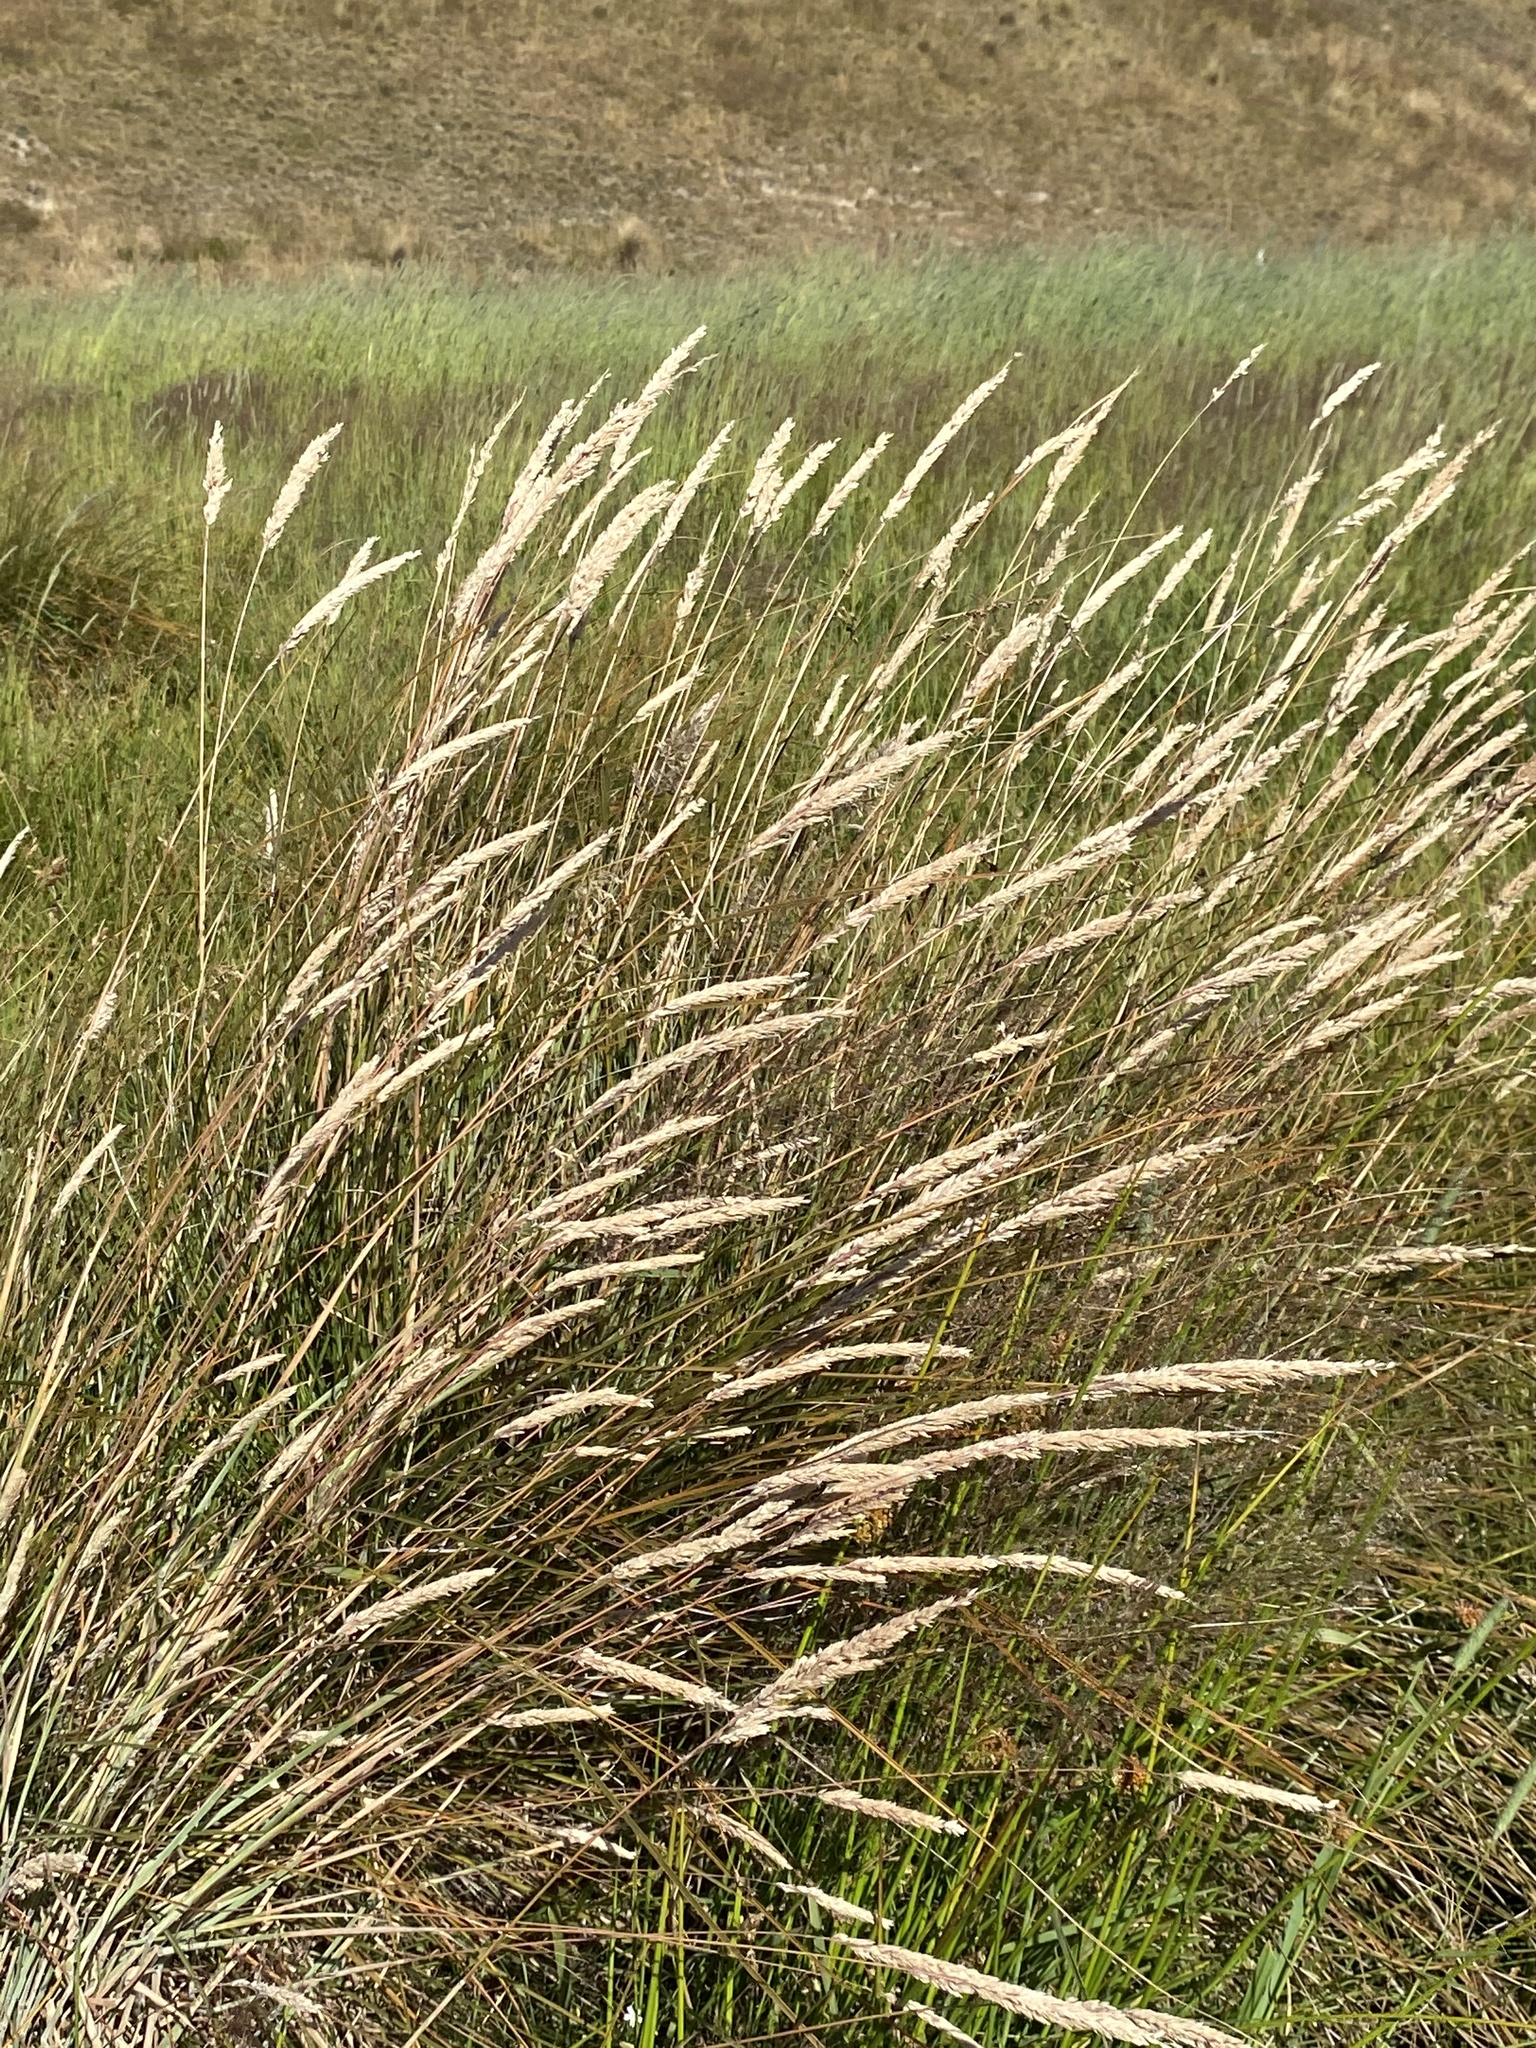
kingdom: Plantae
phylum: Tracheophyta
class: Liliopsida
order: Poales
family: Poaceae
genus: Holcus
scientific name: Holcus lanatus
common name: Yorkshire-fog
